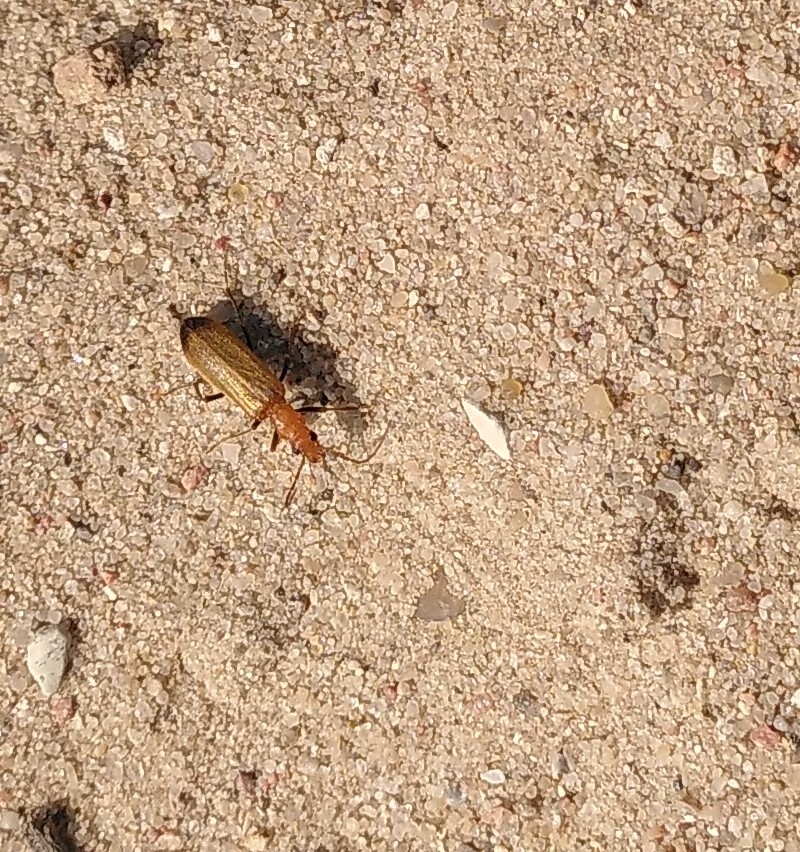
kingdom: Animalia
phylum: Arthropoda
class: Insecta
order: Coleoptera
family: Oedemeridae
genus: Nacerdes
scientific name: Nacerdes melanura
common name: Wharf borer
